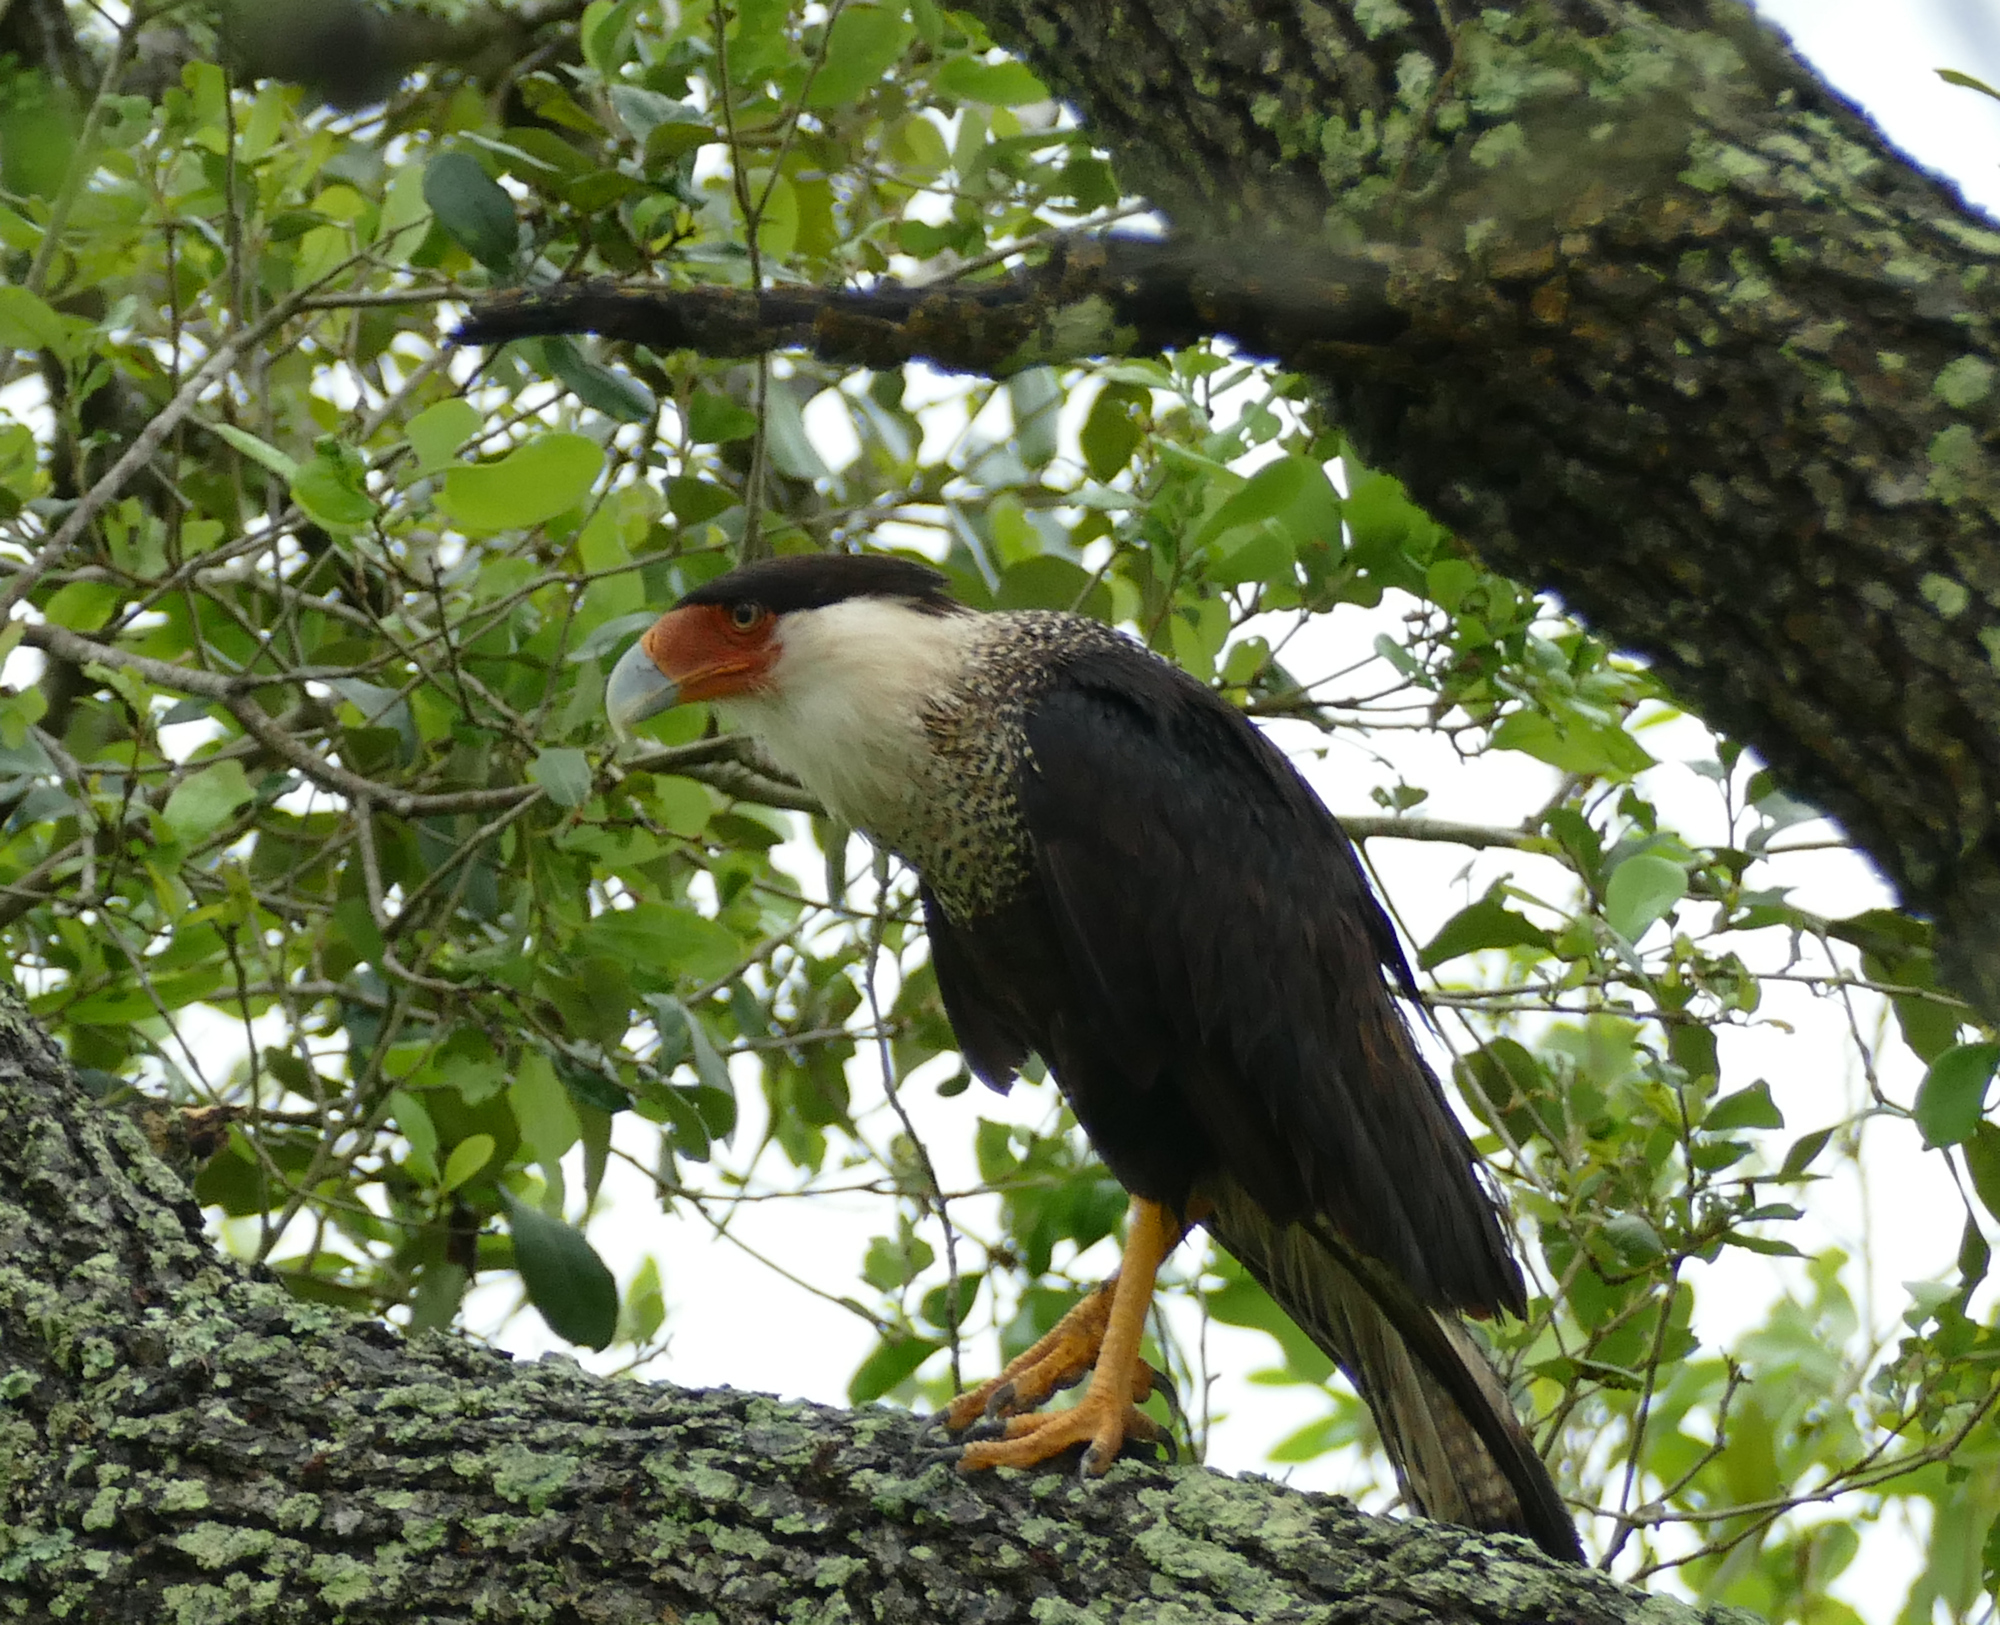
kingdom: Animalia
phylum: Chordata
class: Aves
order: Falconiformes
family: Falconidae
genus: Caracara
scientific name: Caracara plancus
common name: Southern caracara
